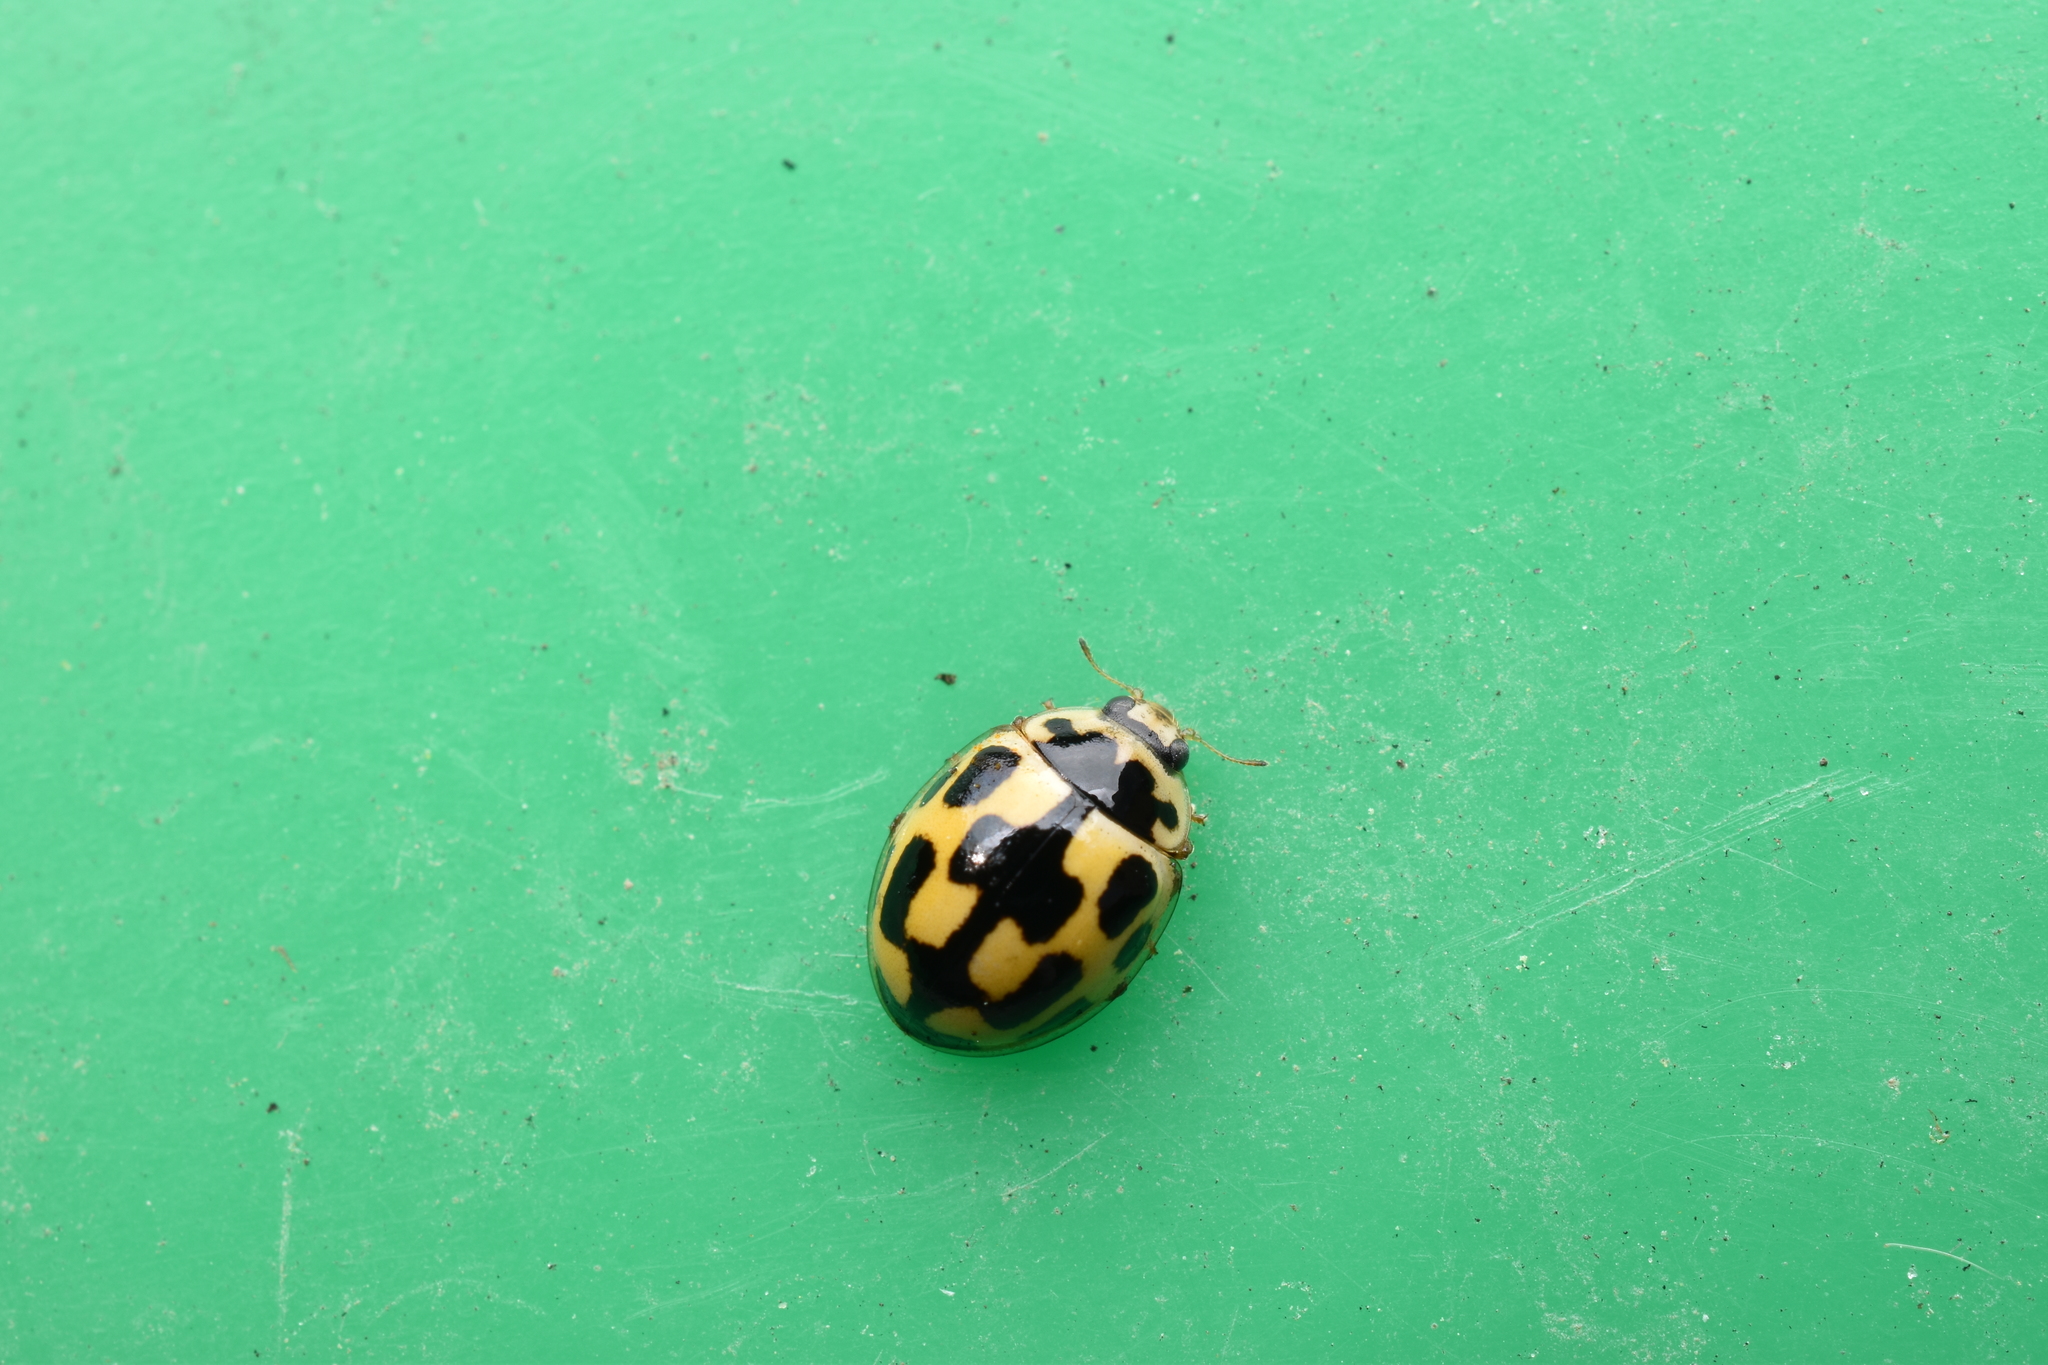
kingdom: Animalia
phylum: Arthropoda
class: Insecta
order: Coleoptera
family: Coccinellidae
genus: Propylaea
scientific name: Propylaea quatuordecimpunctata
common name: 14-spotted ladybird beetle
